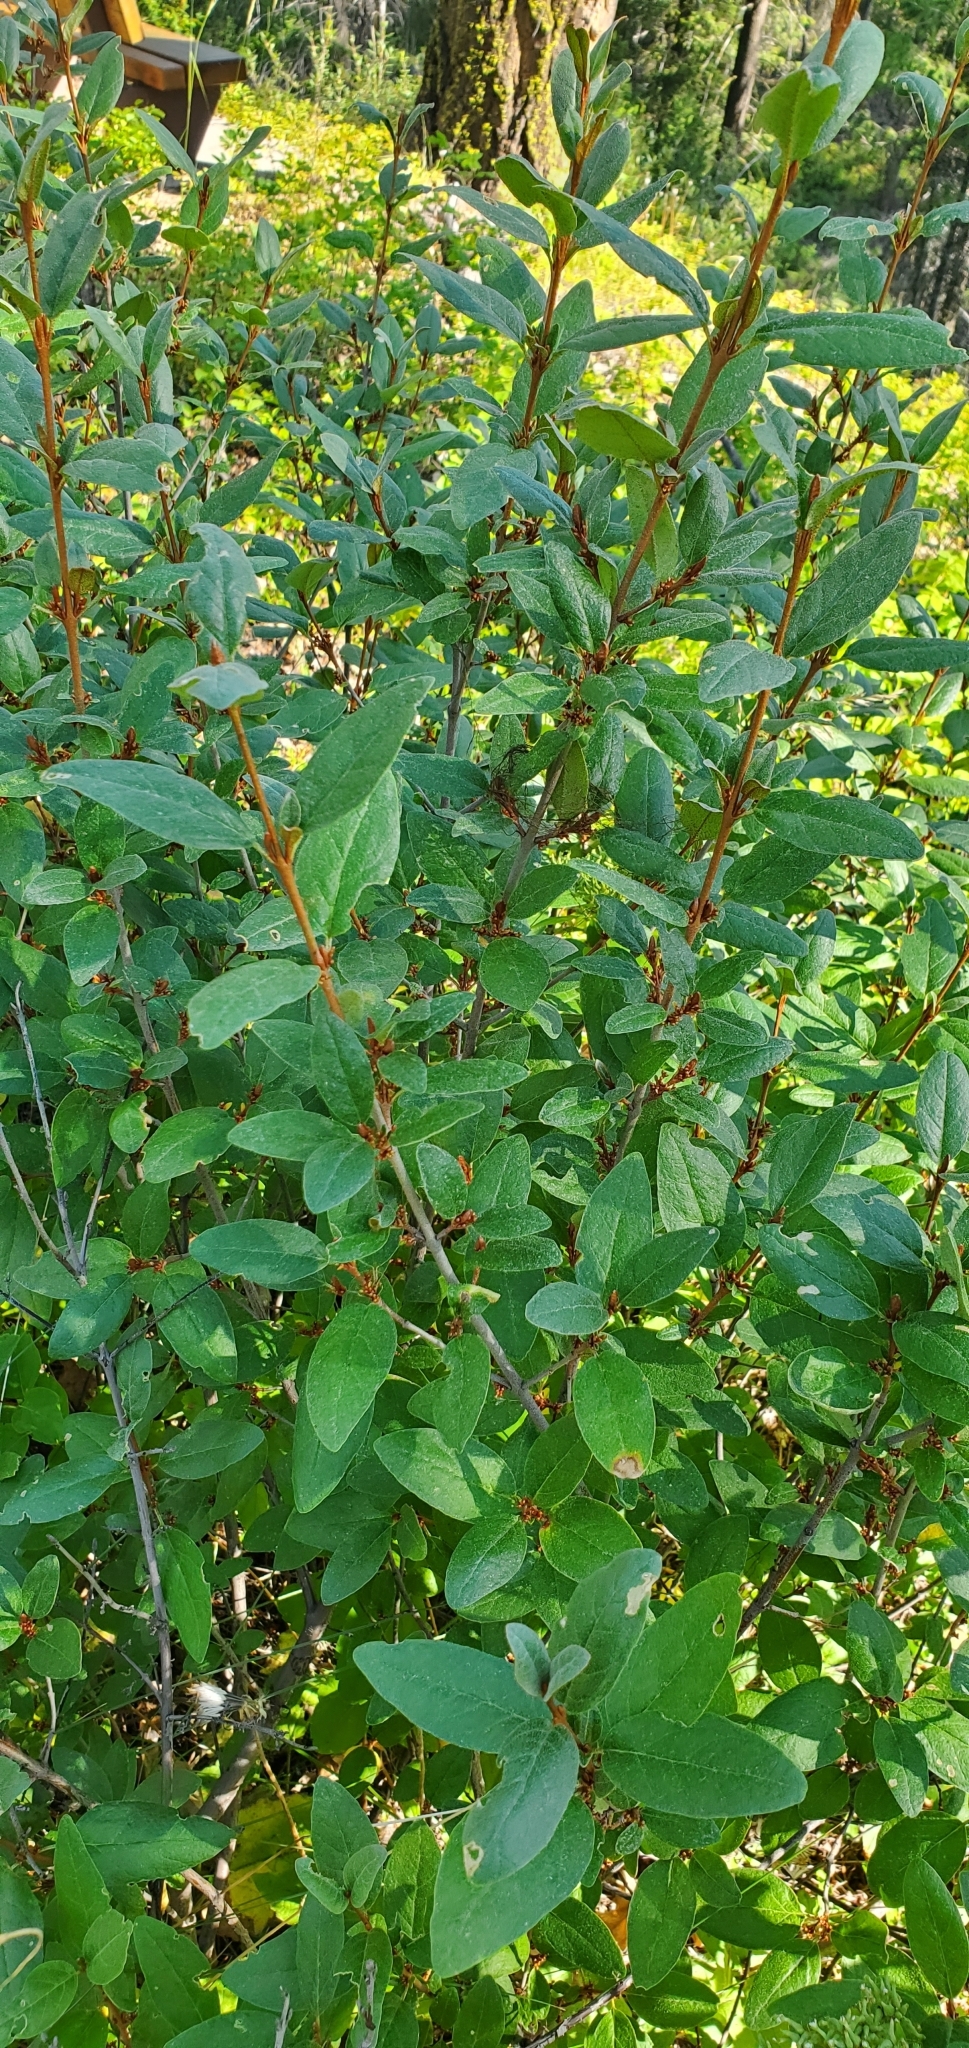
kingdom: Plantae
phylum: Tracheophyta
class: Magnoliopsida
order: Rosales
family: Elaeagnaceae
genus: Shepherdia
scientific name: Shepherdia canadensis
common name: Soapberry
